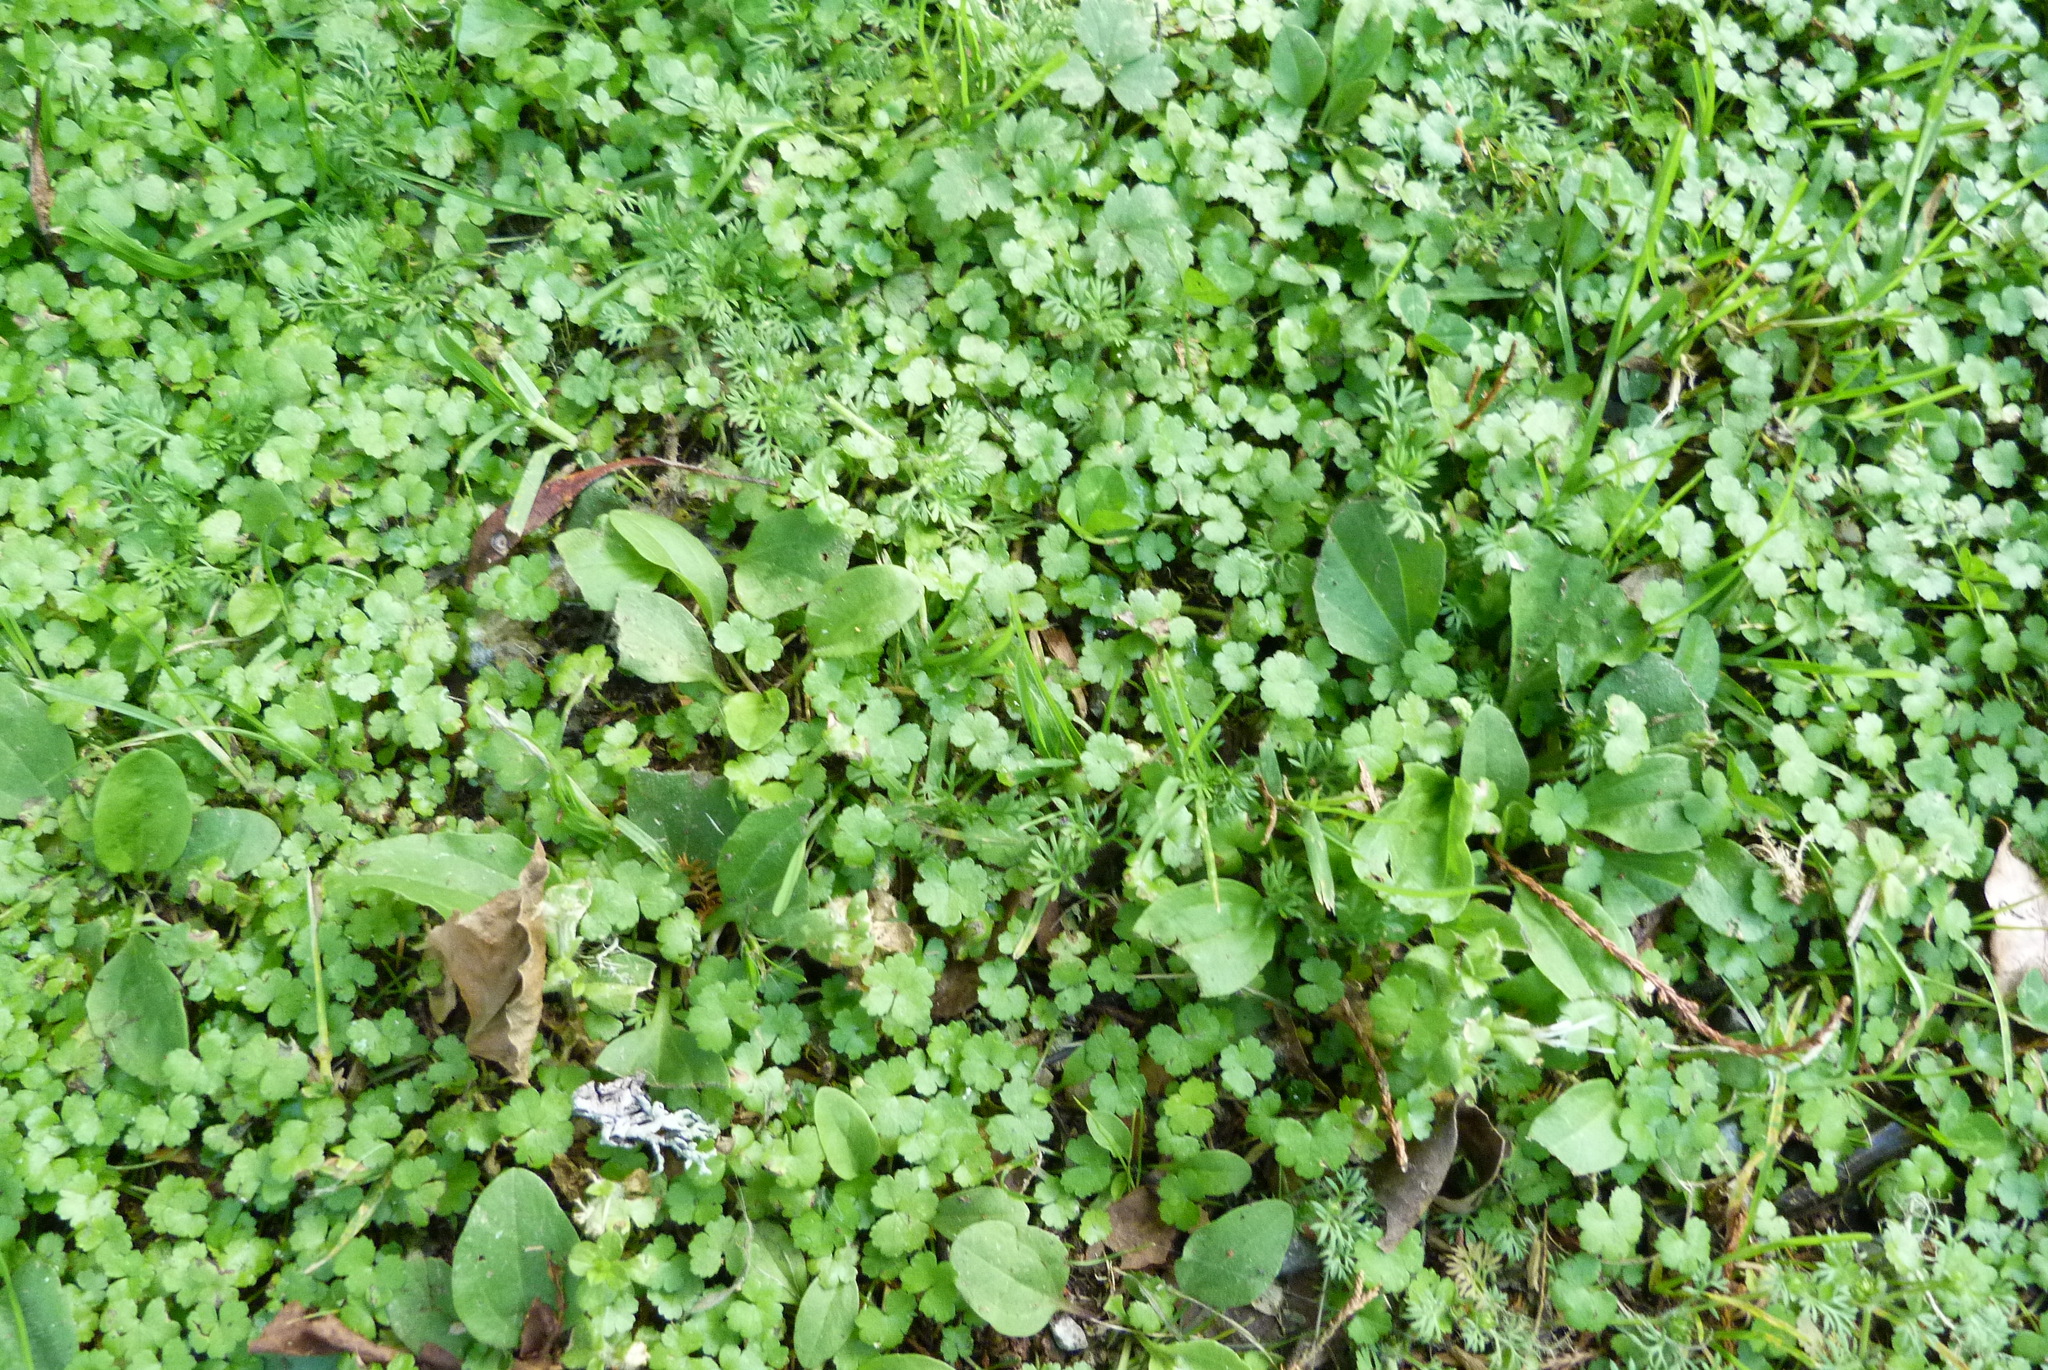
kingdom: Plantae
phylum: Tracheophyta
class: Magnoliopsida
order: Apiales
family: Araliaceae
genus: Hydrocotyle
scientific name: Hydrocotyle heteromeria
